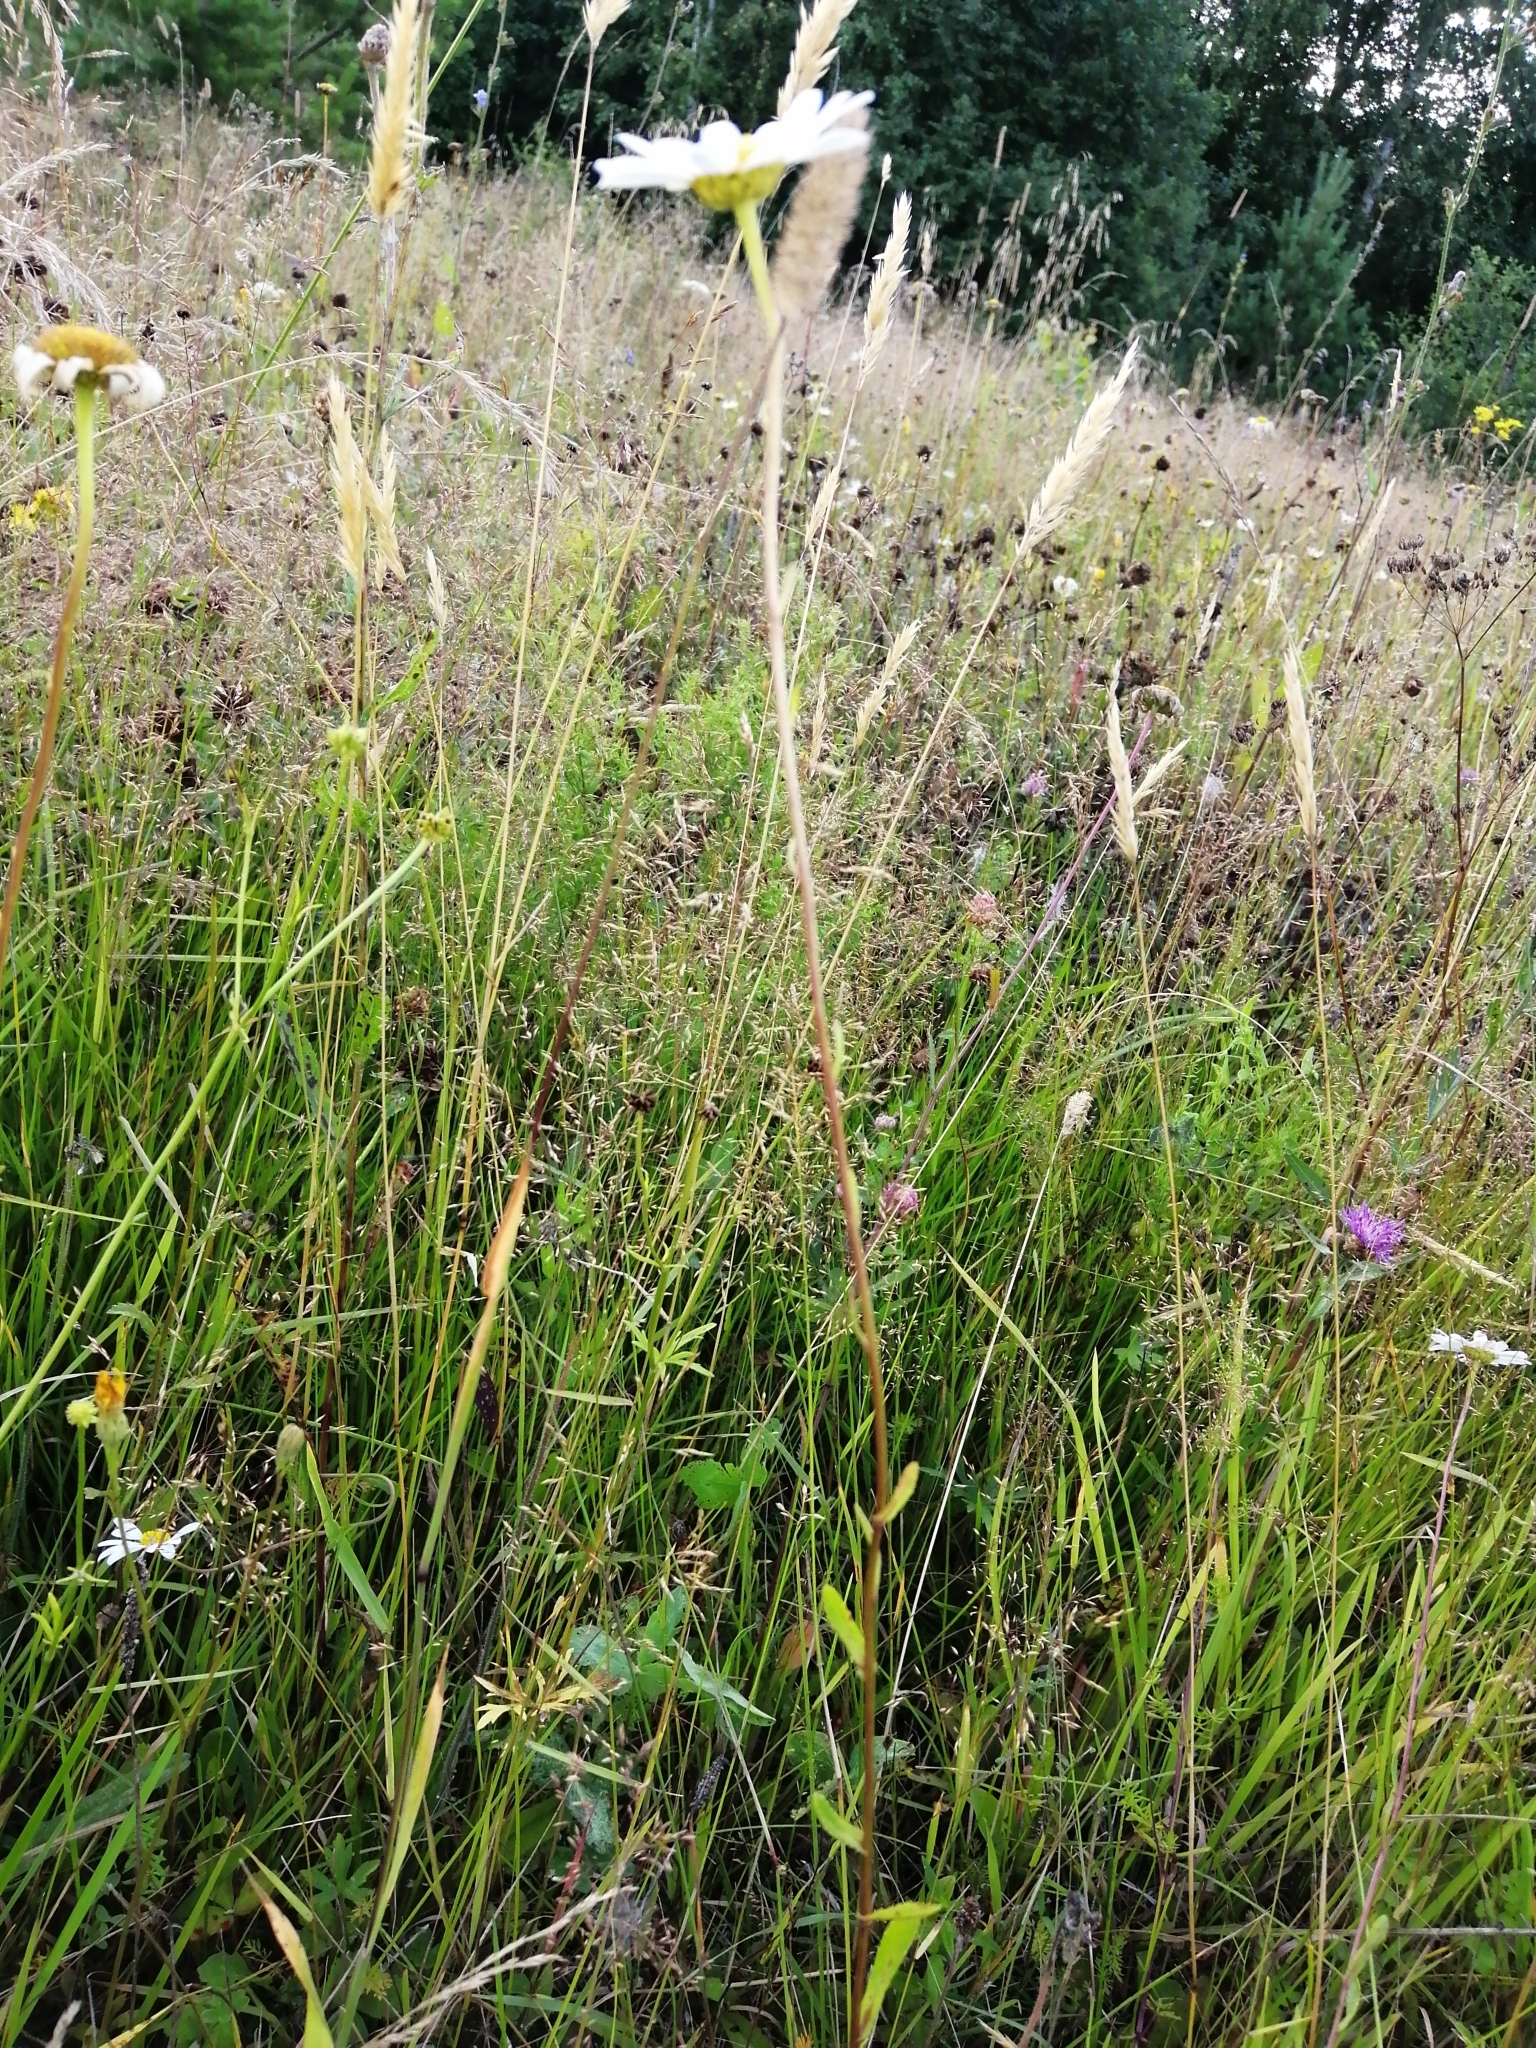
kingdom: Plantae
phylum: Tracheophyta
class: Magnoliopsida
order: Asterales
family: Asteraceae
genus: Leucanthemum
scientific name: Leucanthemum vulgare
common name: Oxeye daisy
